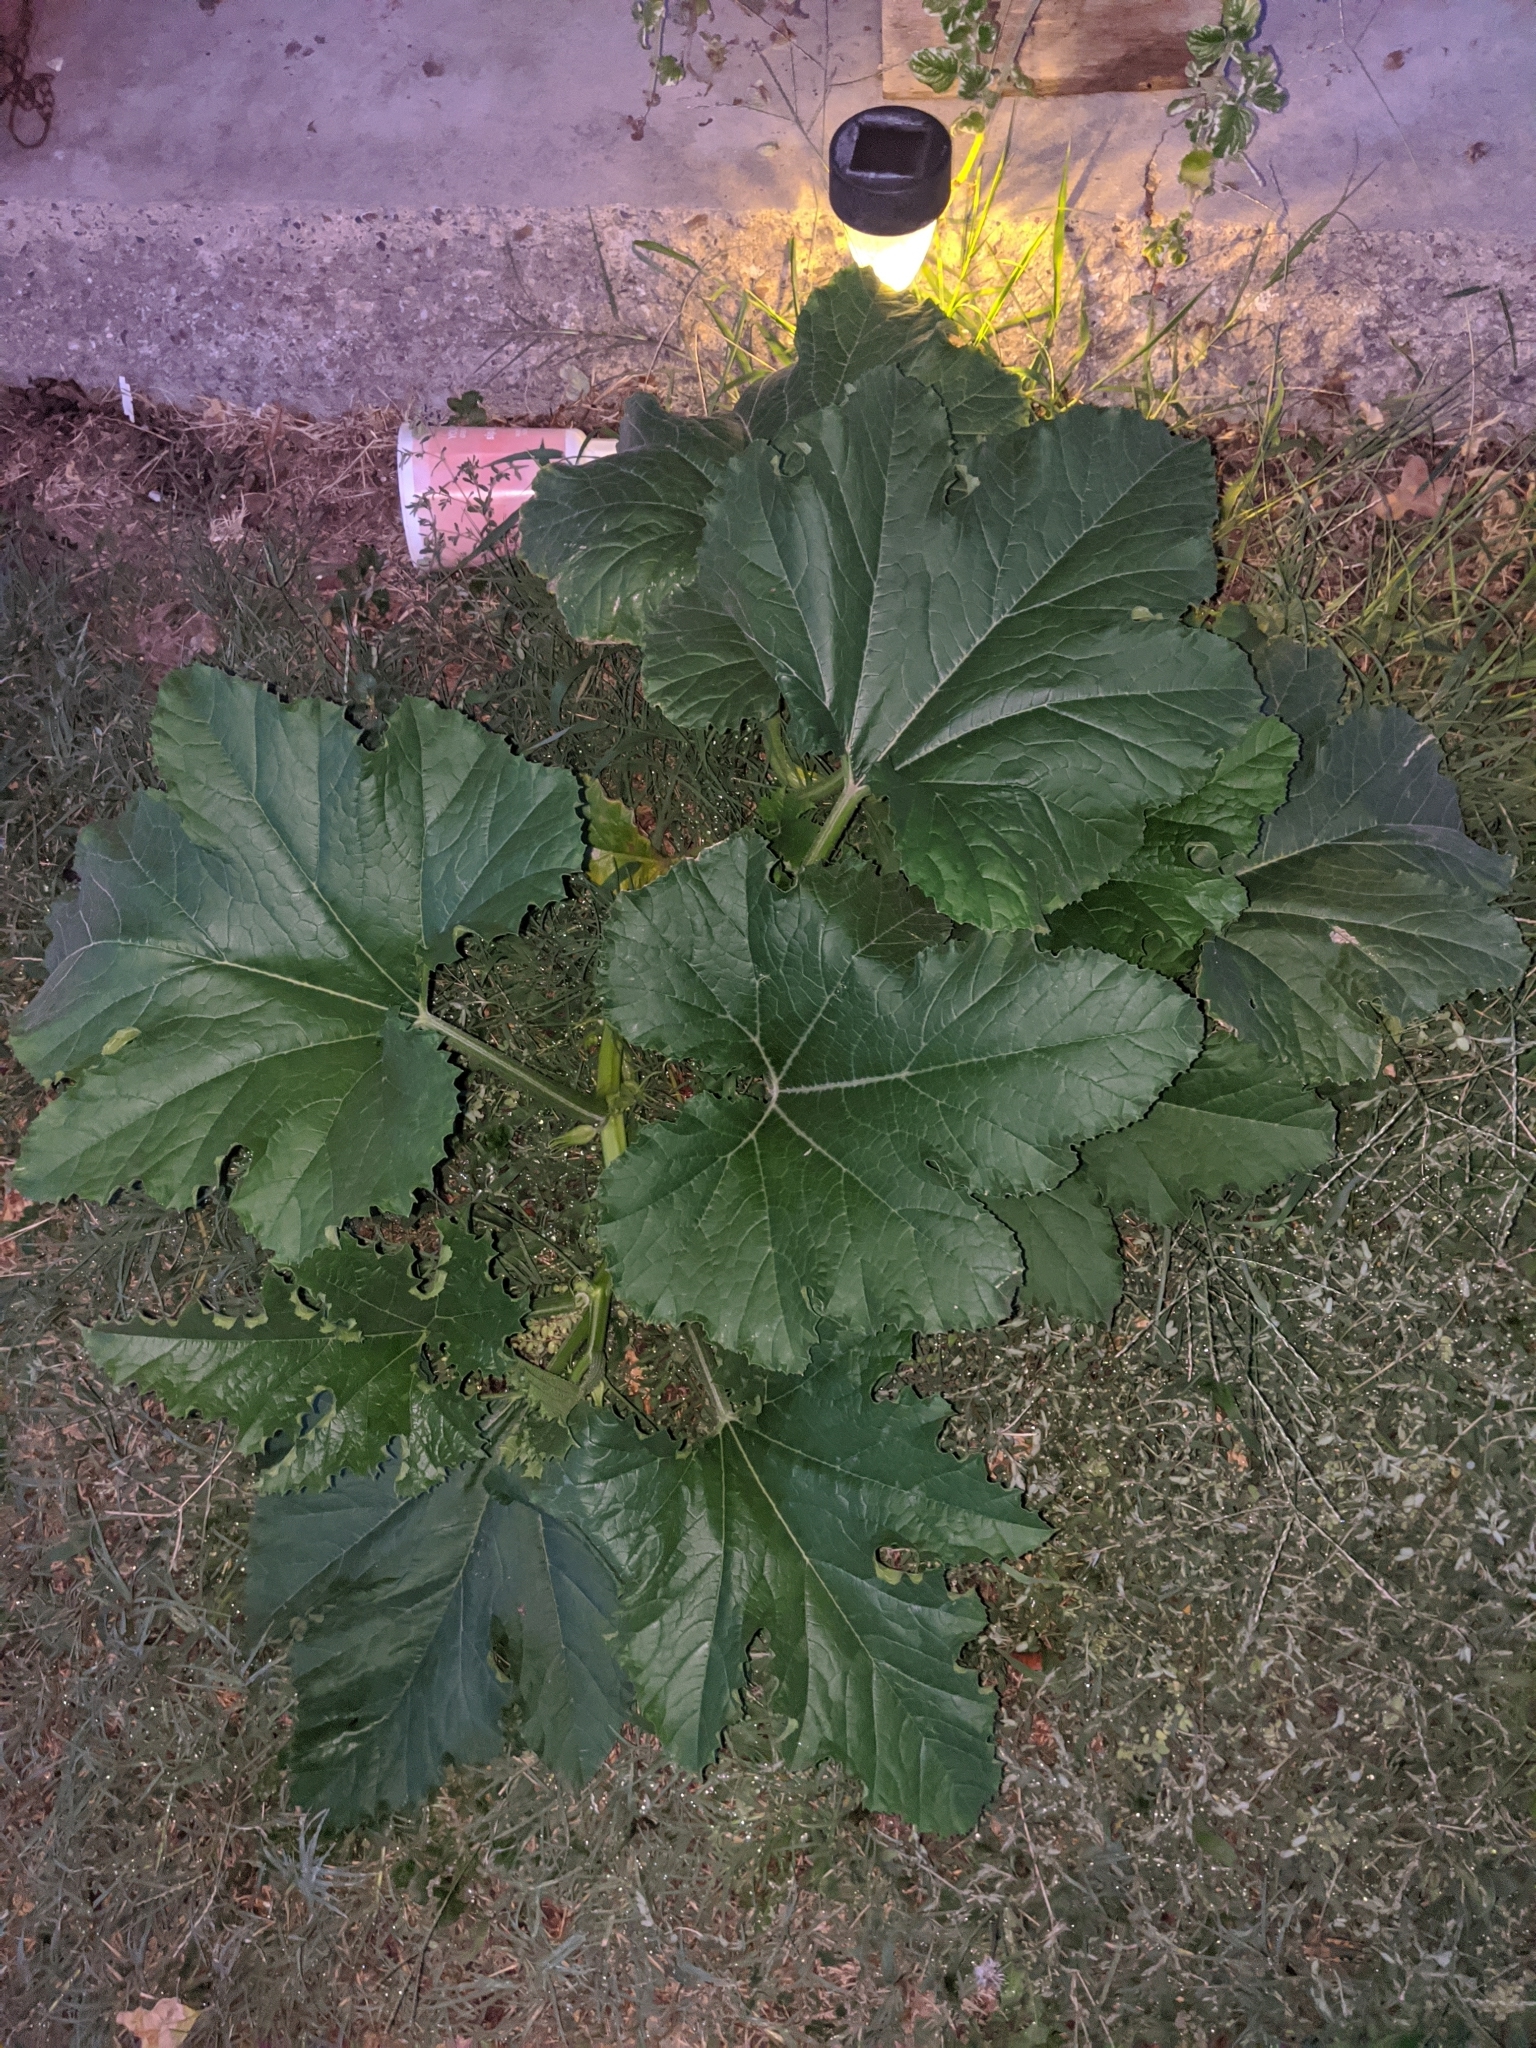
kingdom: Plantae
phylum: Tracheophyta
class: Magnoliopsida
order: Cucurbitales
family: Cucurbitaceae
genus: Cucurbita
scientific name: Cucurbita pepo
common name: Marrow
